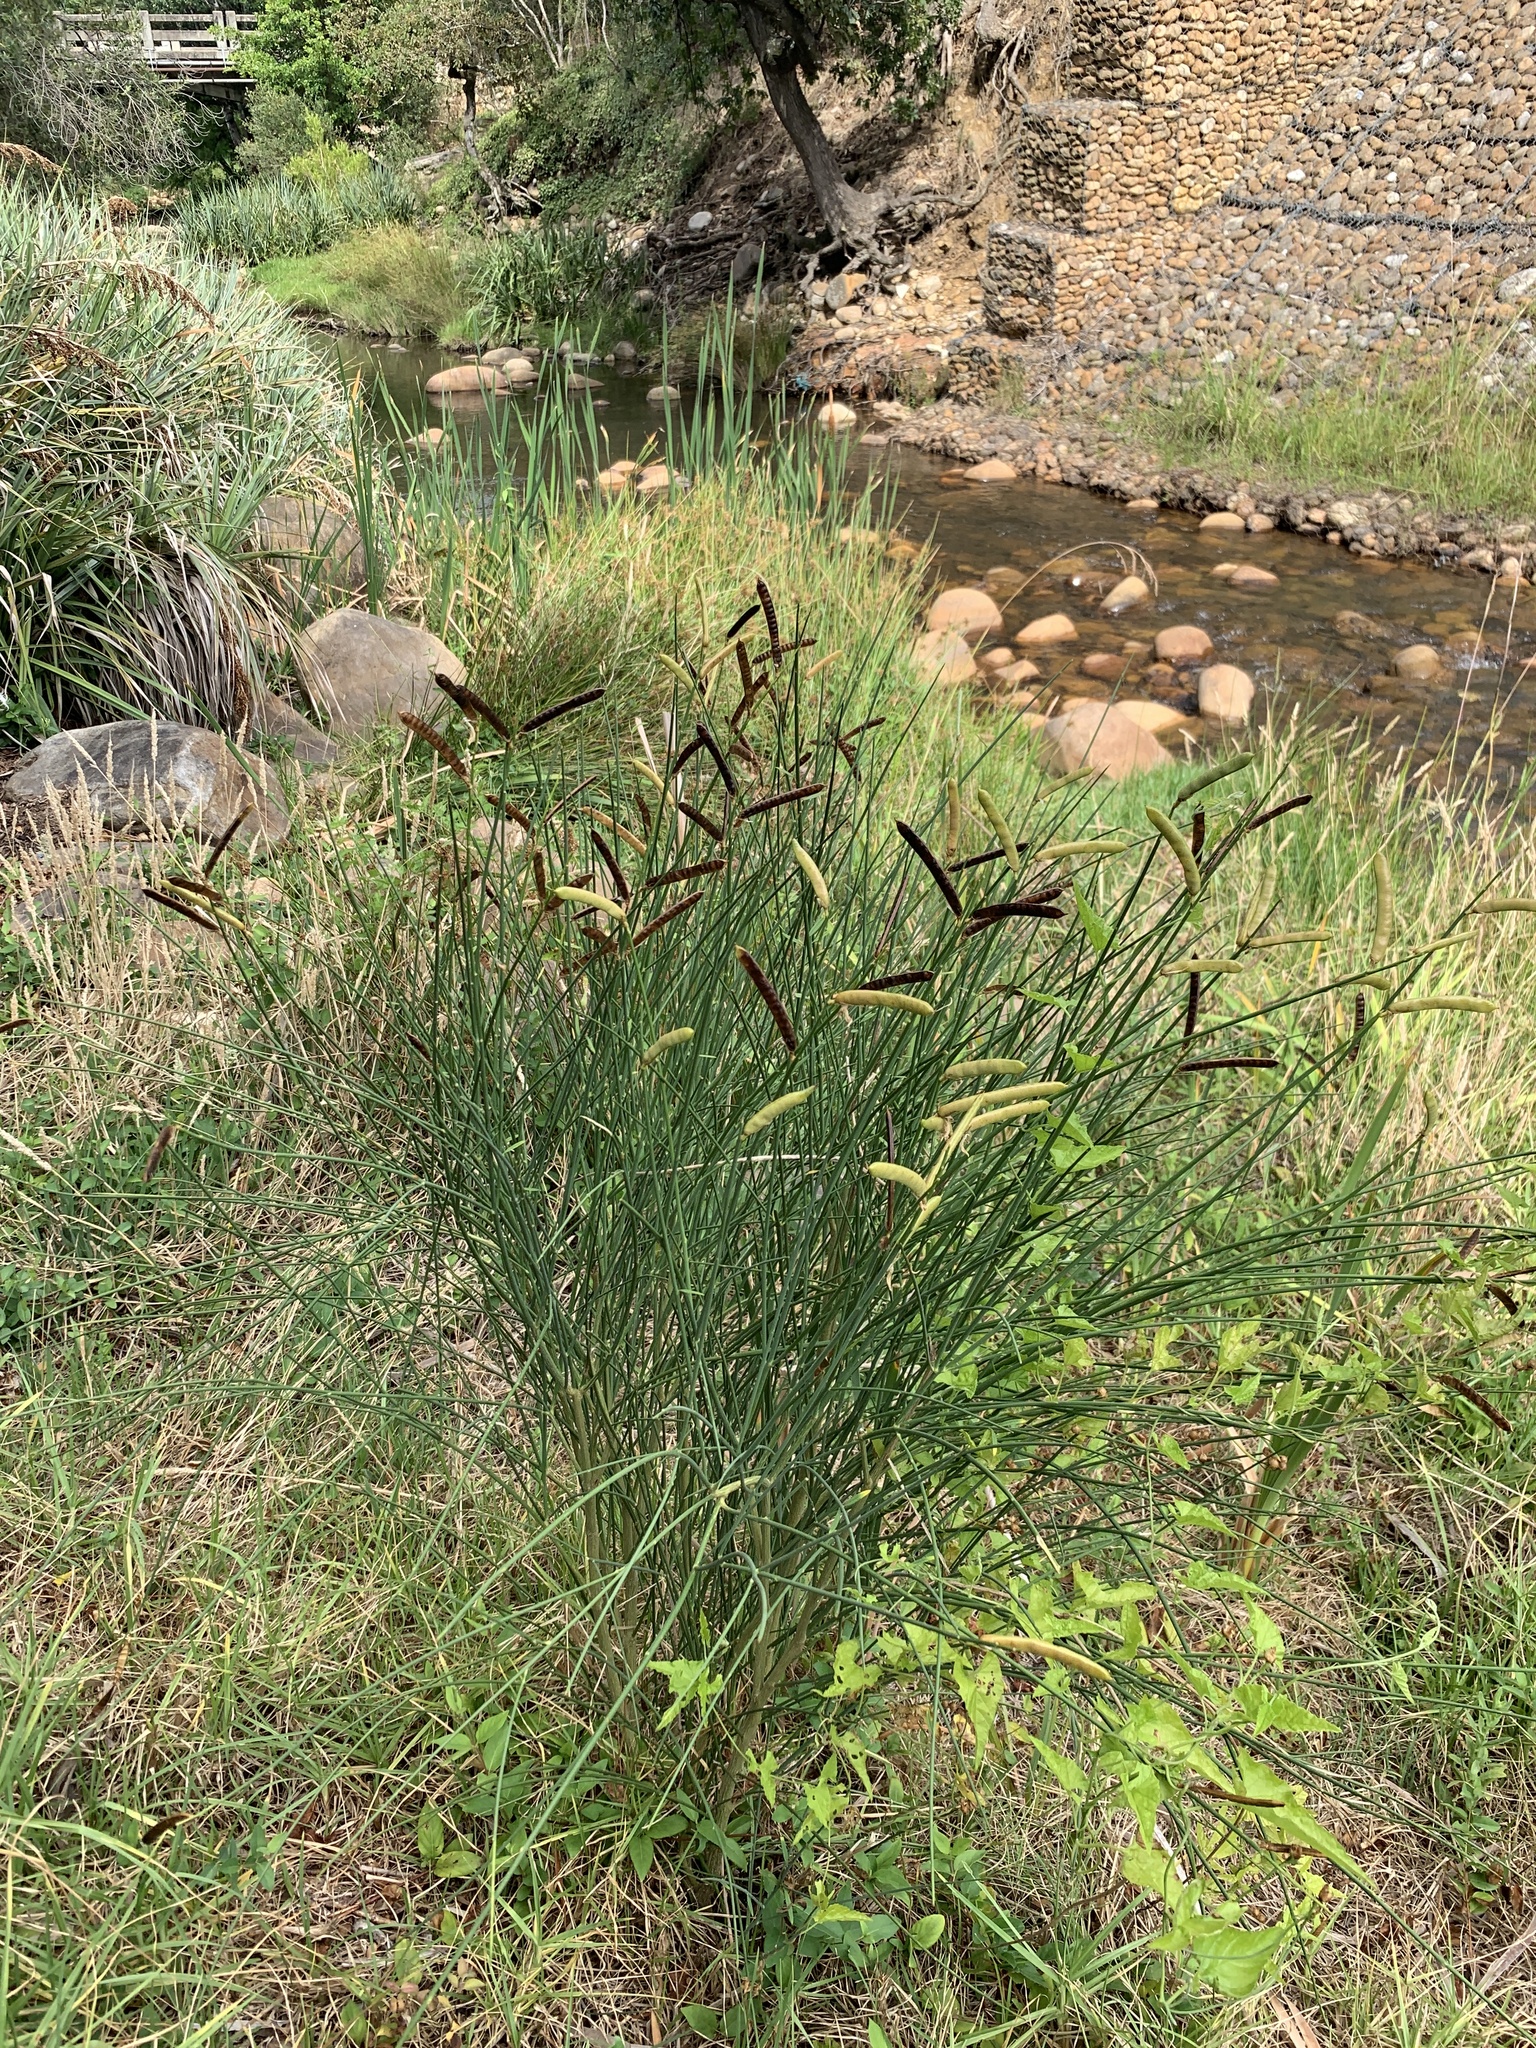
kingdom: Plantae
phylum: Tracheophyta
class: Magnoliopsida
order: Fabales
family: Fabaceae
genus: Spartium
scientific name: Spartium junceum
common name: Spanish broom
